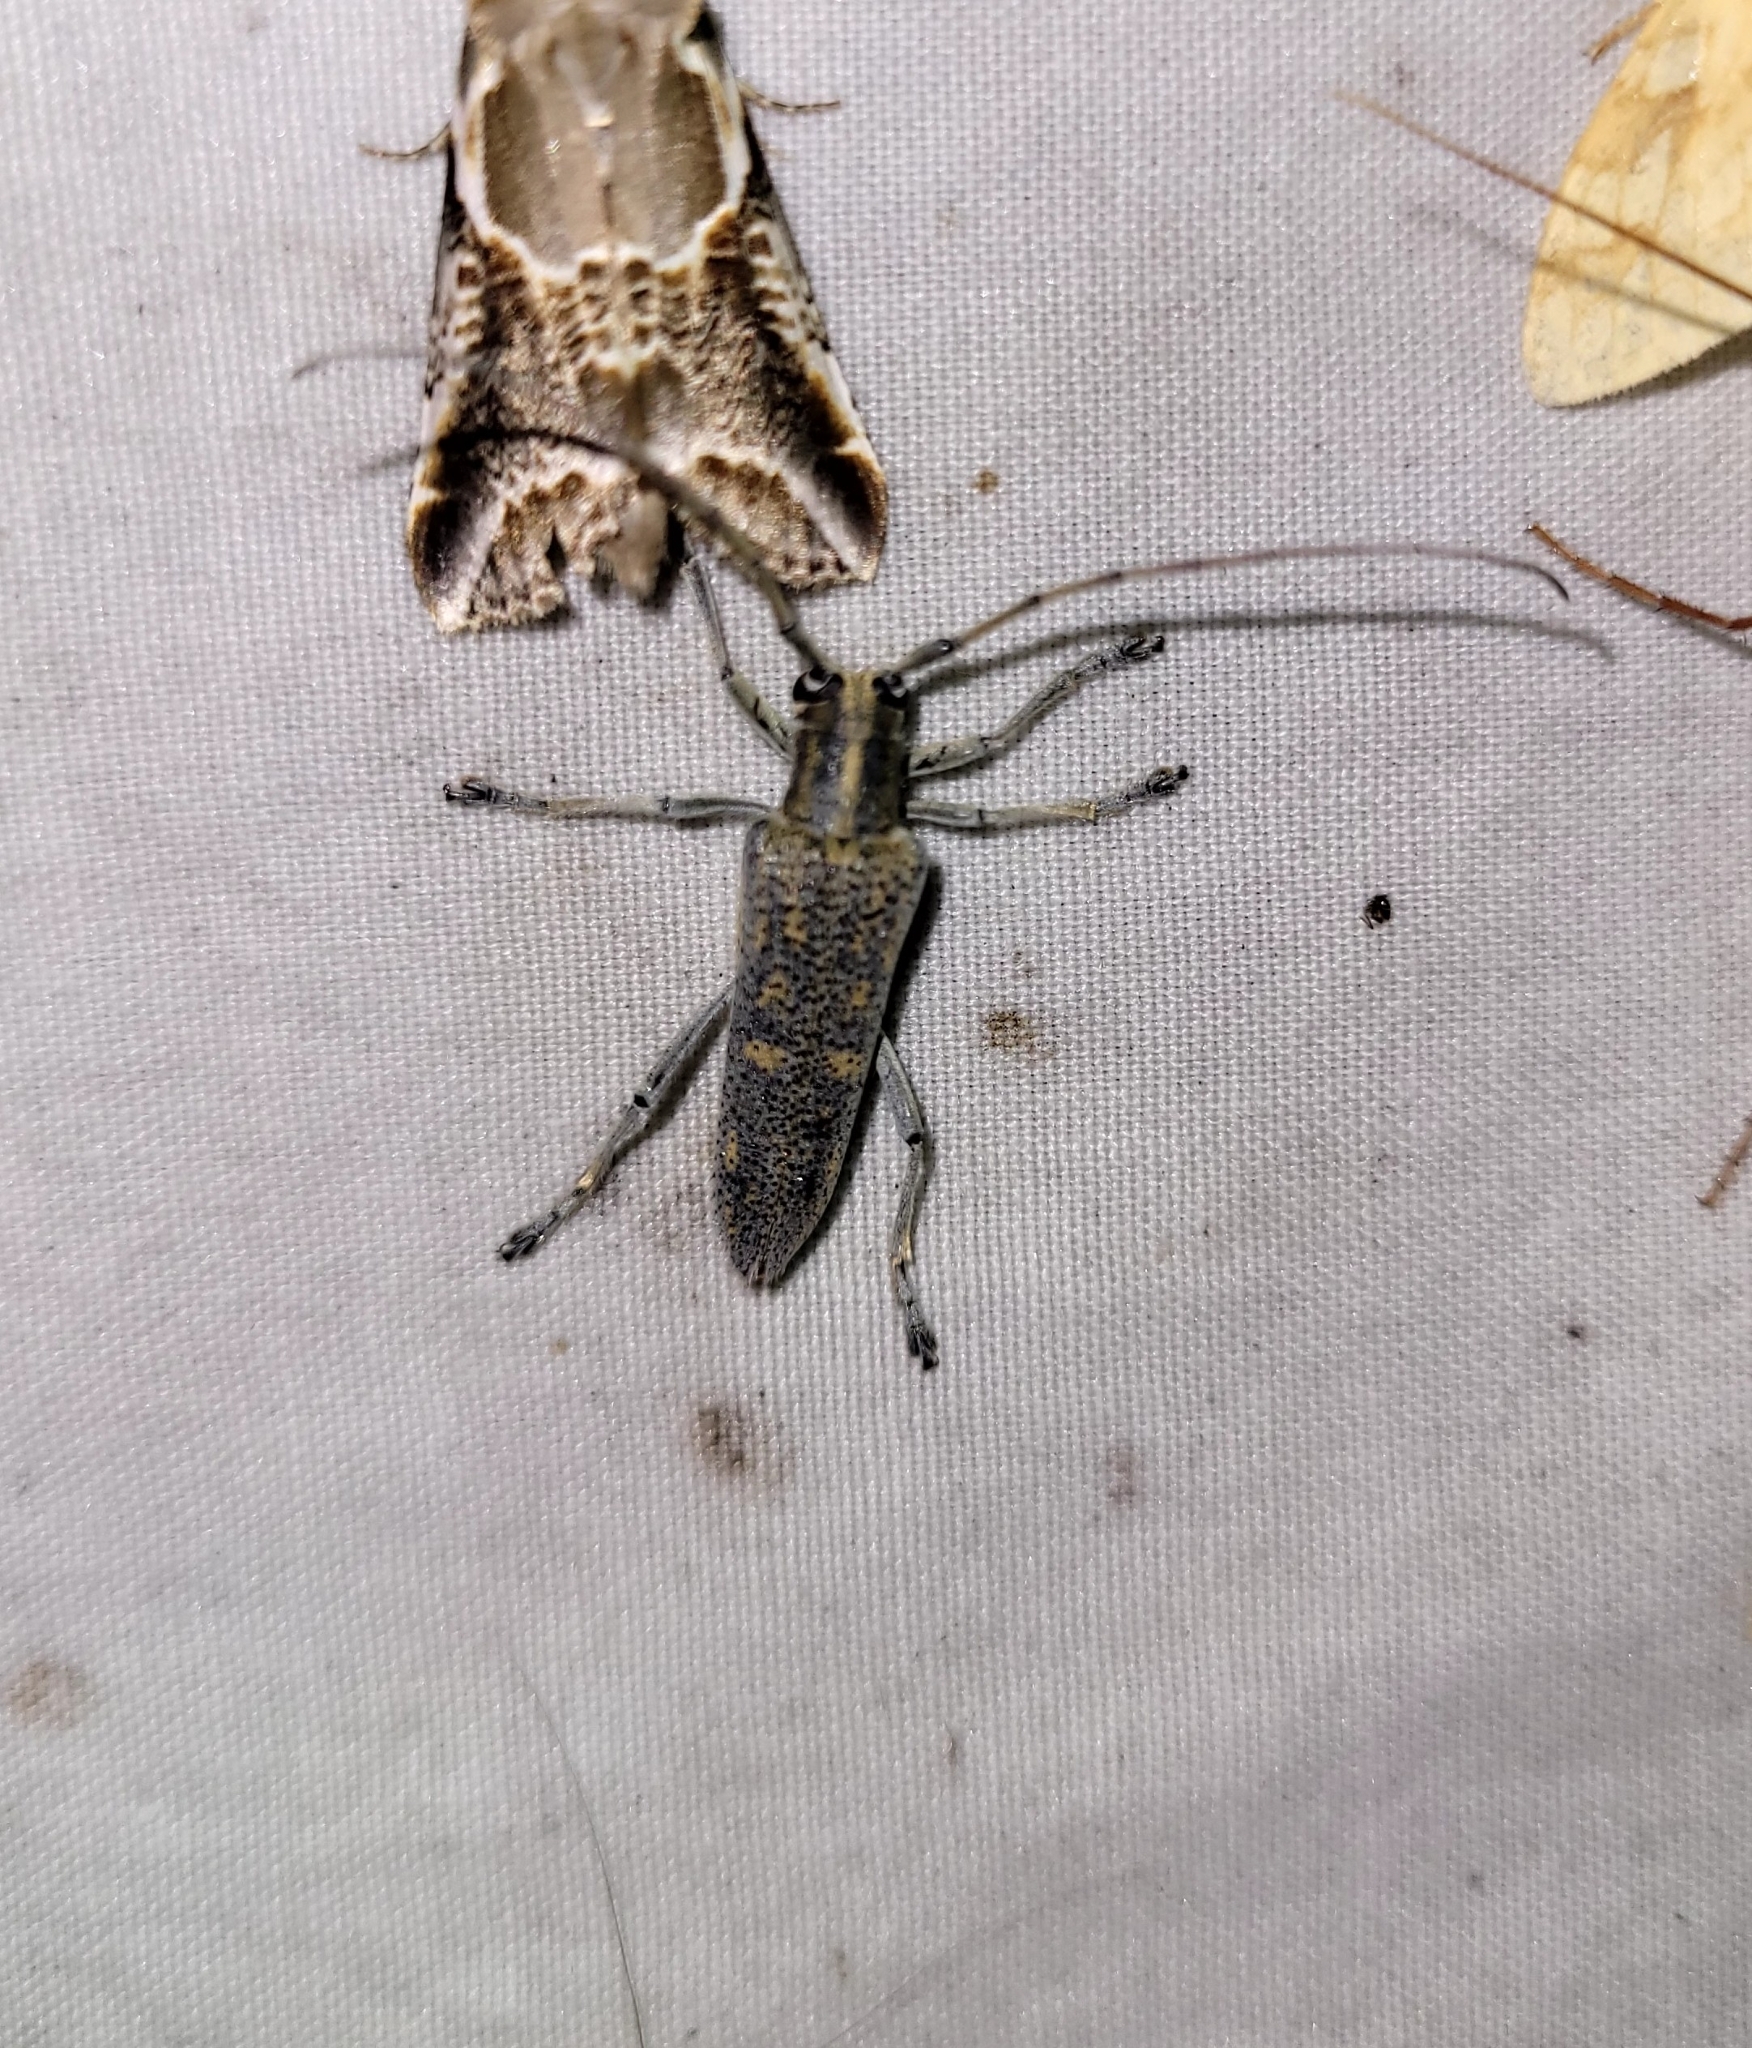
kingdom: Animalia
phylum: Arthropoda
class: Insecta
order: Coleoptera
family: Cerambycidae
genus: Saperda
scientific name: Saperda calcarata
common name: Poplar borer
